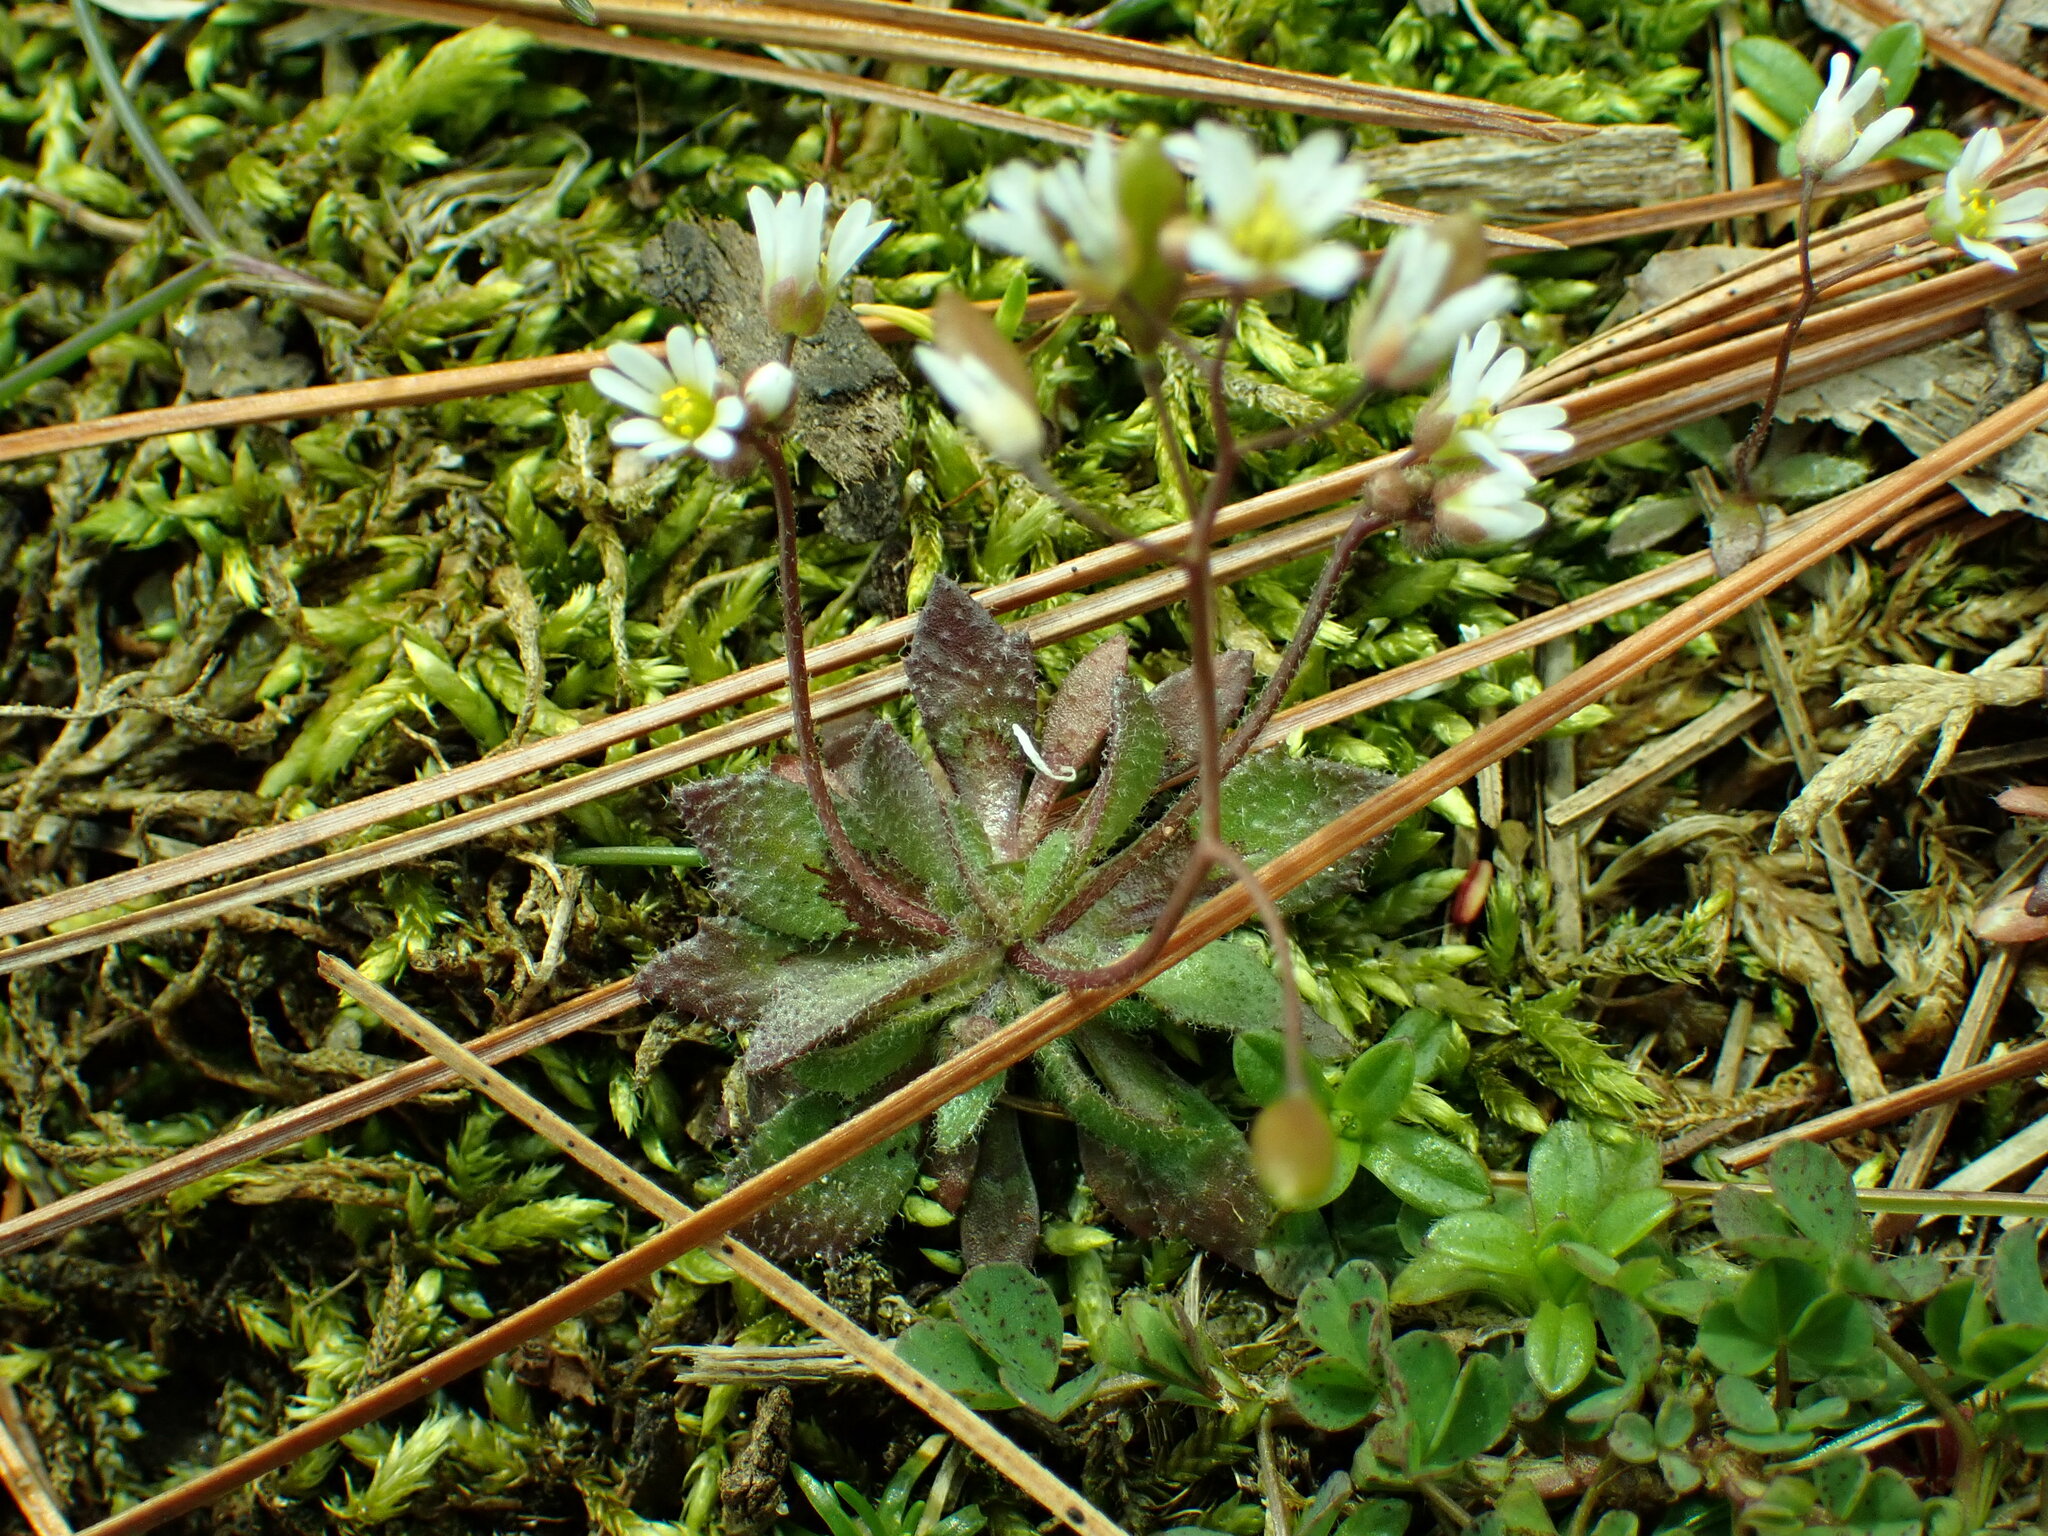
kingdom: Plantae
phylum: Tracheophyta
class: Magnoliopsida
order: Brassicales
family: Brassicaceae
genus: Draba
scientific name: Draba verna
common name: Spring draba
